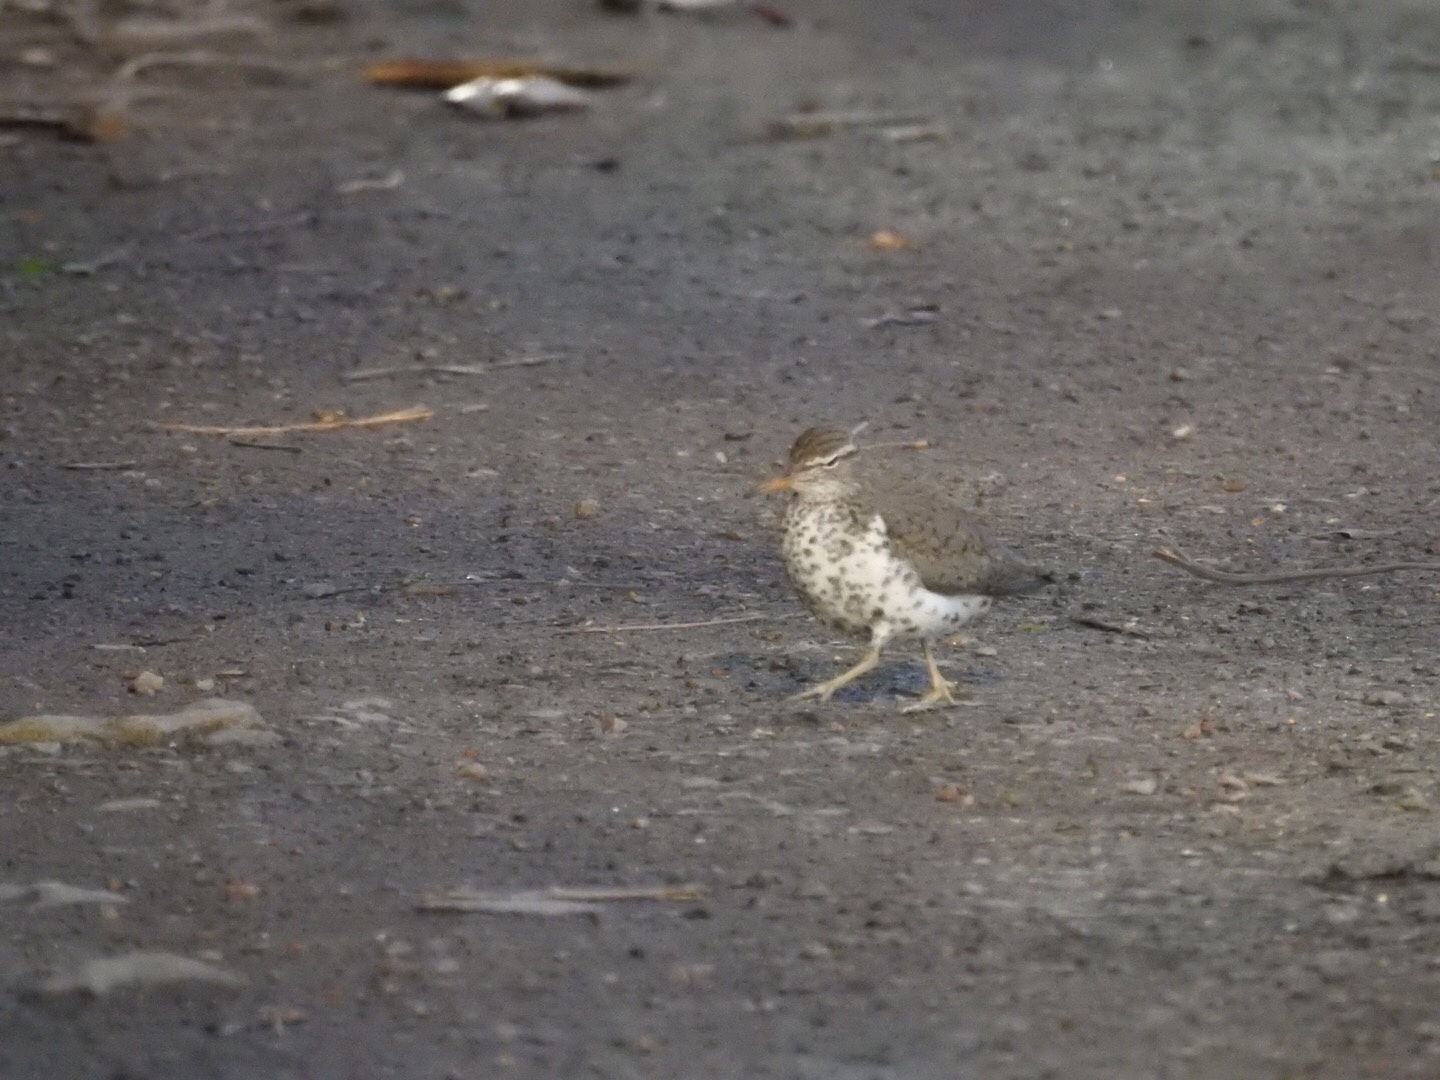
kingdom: Animalia
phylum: Chordata
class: Aves
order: Charadriiformes
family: Scolopacidae
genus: Actitis
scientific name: Actitis macularius
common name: Spotted sandpiper
